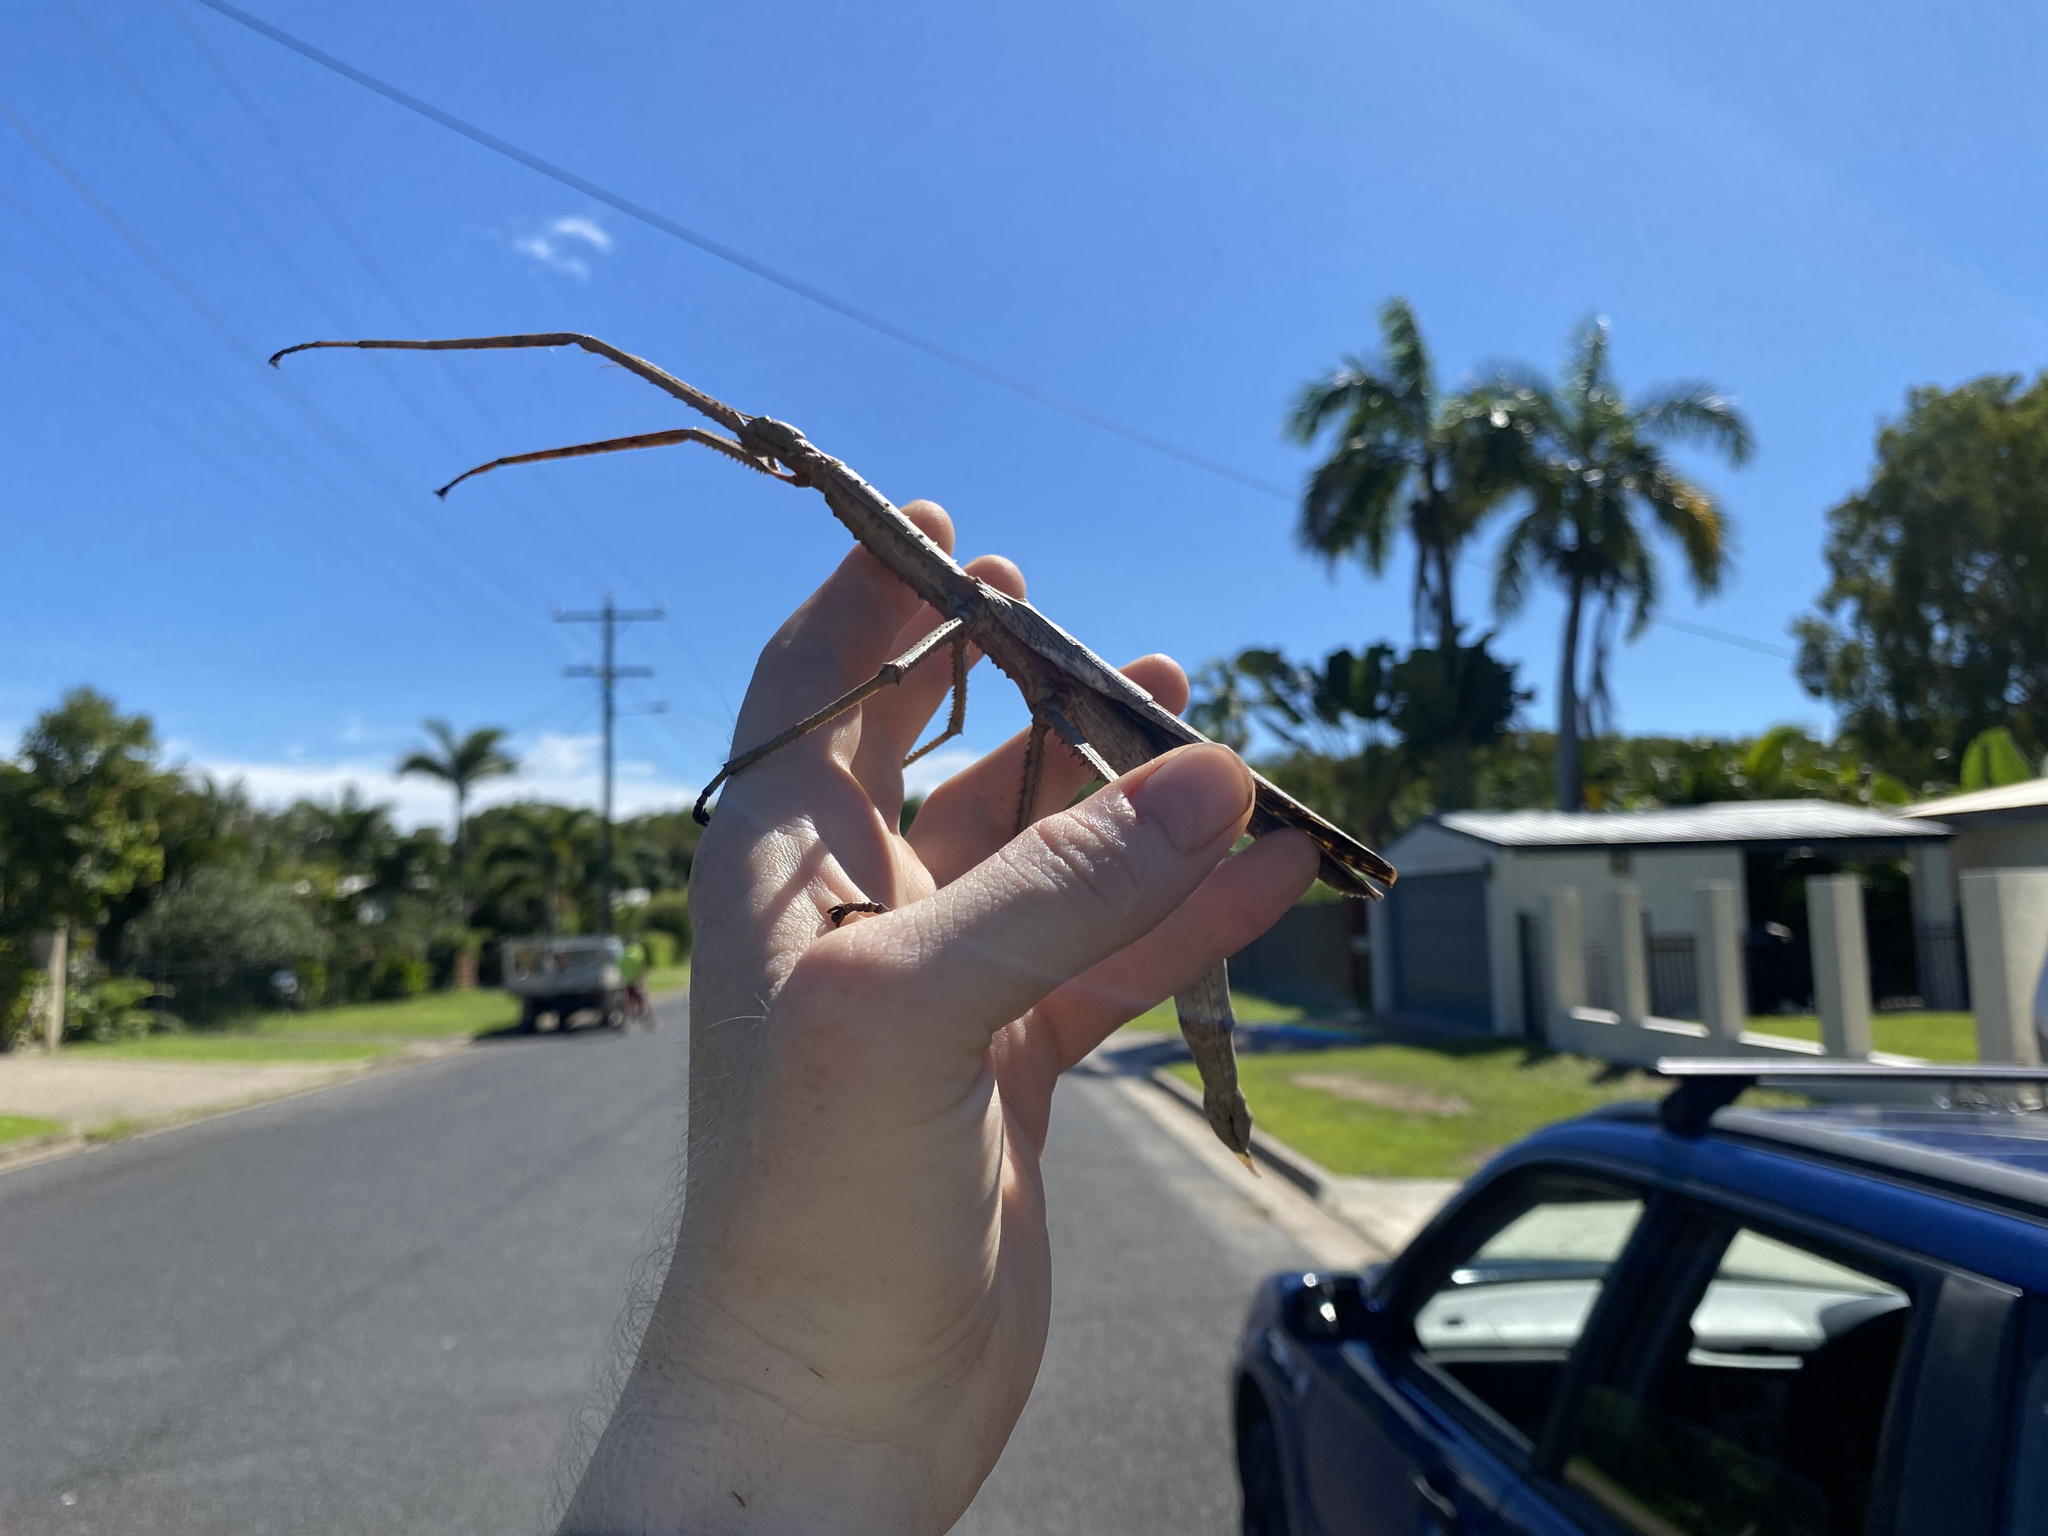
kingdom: Animalia
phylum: Arthropoda
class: Insecta
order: Phasmida
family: Phasmatidae
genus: Acrophylla
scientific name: Acrophylla wuelfingi
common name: Wülfing's stick insect
